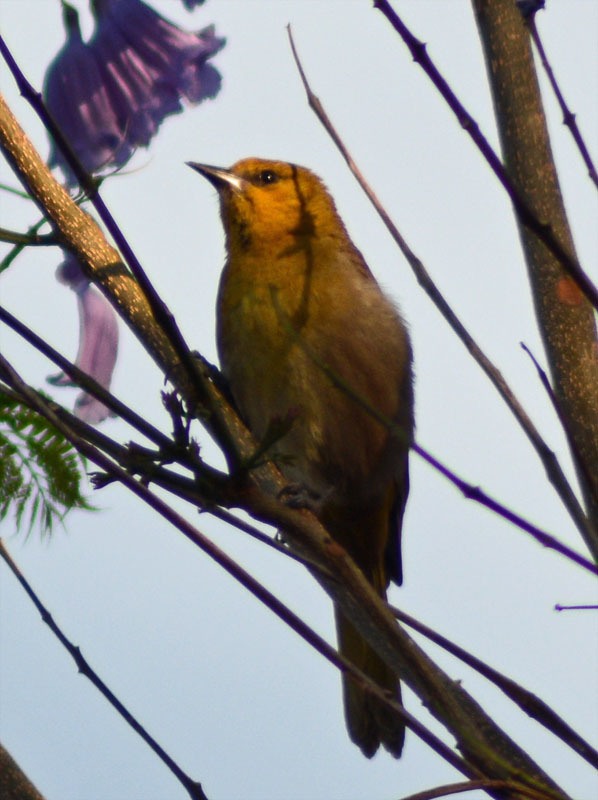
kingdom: Animalia
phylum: Chordata
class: Aves
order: Passeriformes
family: Icteridae
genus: Icterus
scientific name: Icterus spurius
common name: Orchard oriole
